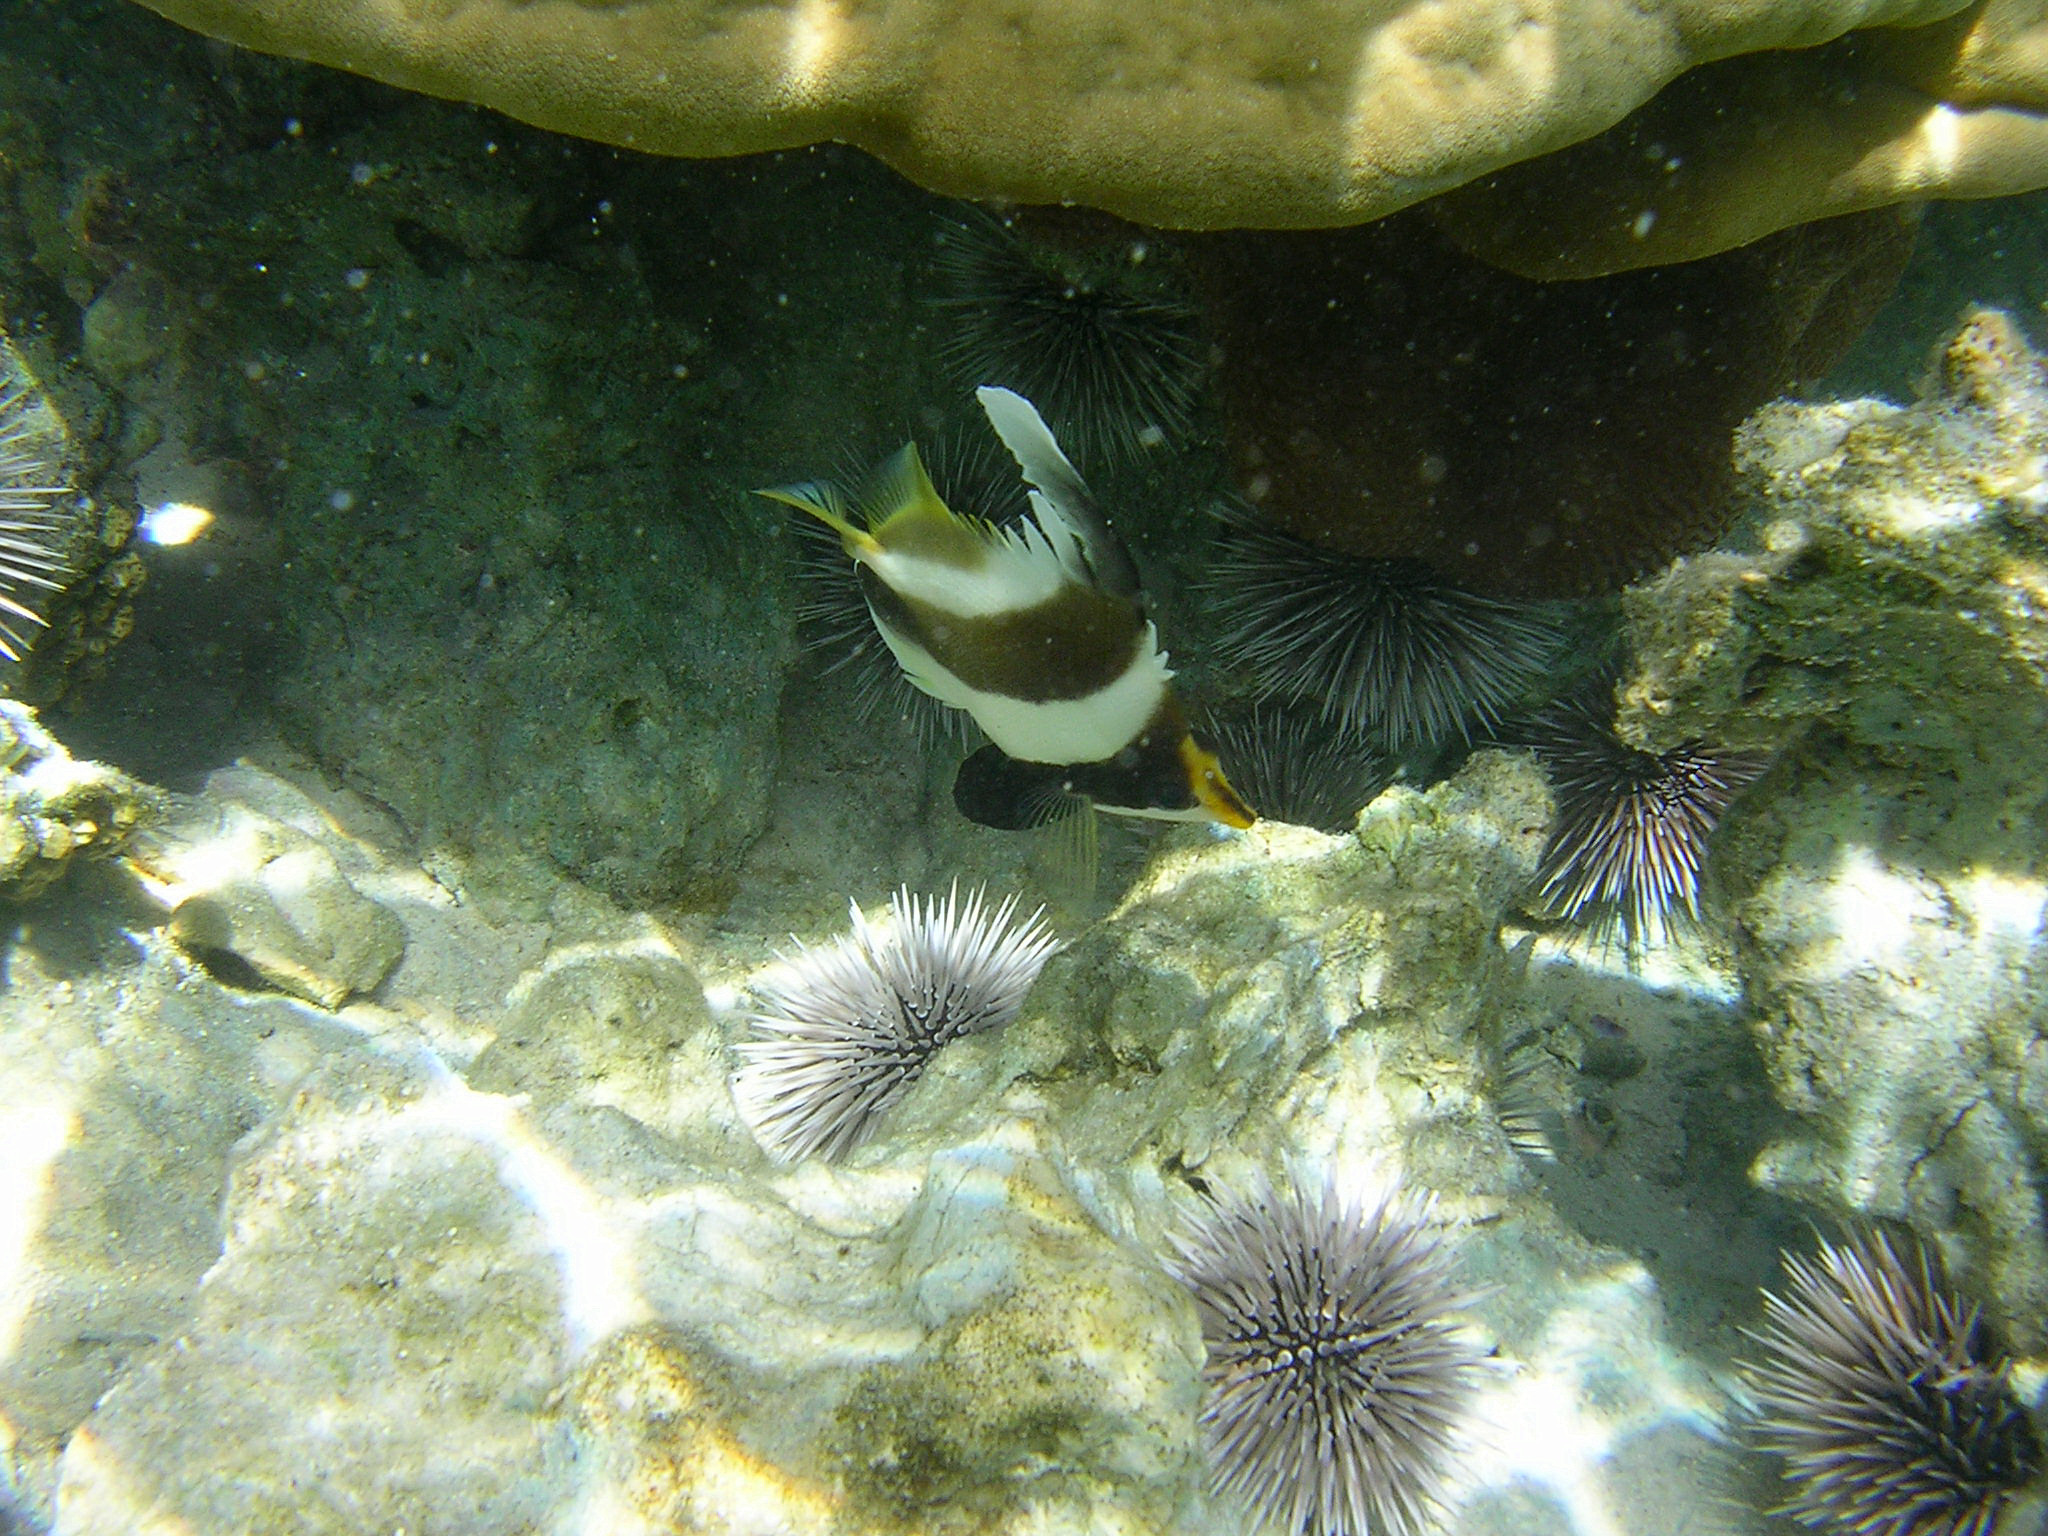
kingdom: Animalia
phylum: Chordata
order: Perciformes
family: Chaetodontidae
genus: Heniochus
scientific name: Heniochus chrysostomus
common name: Horned bannerfish
